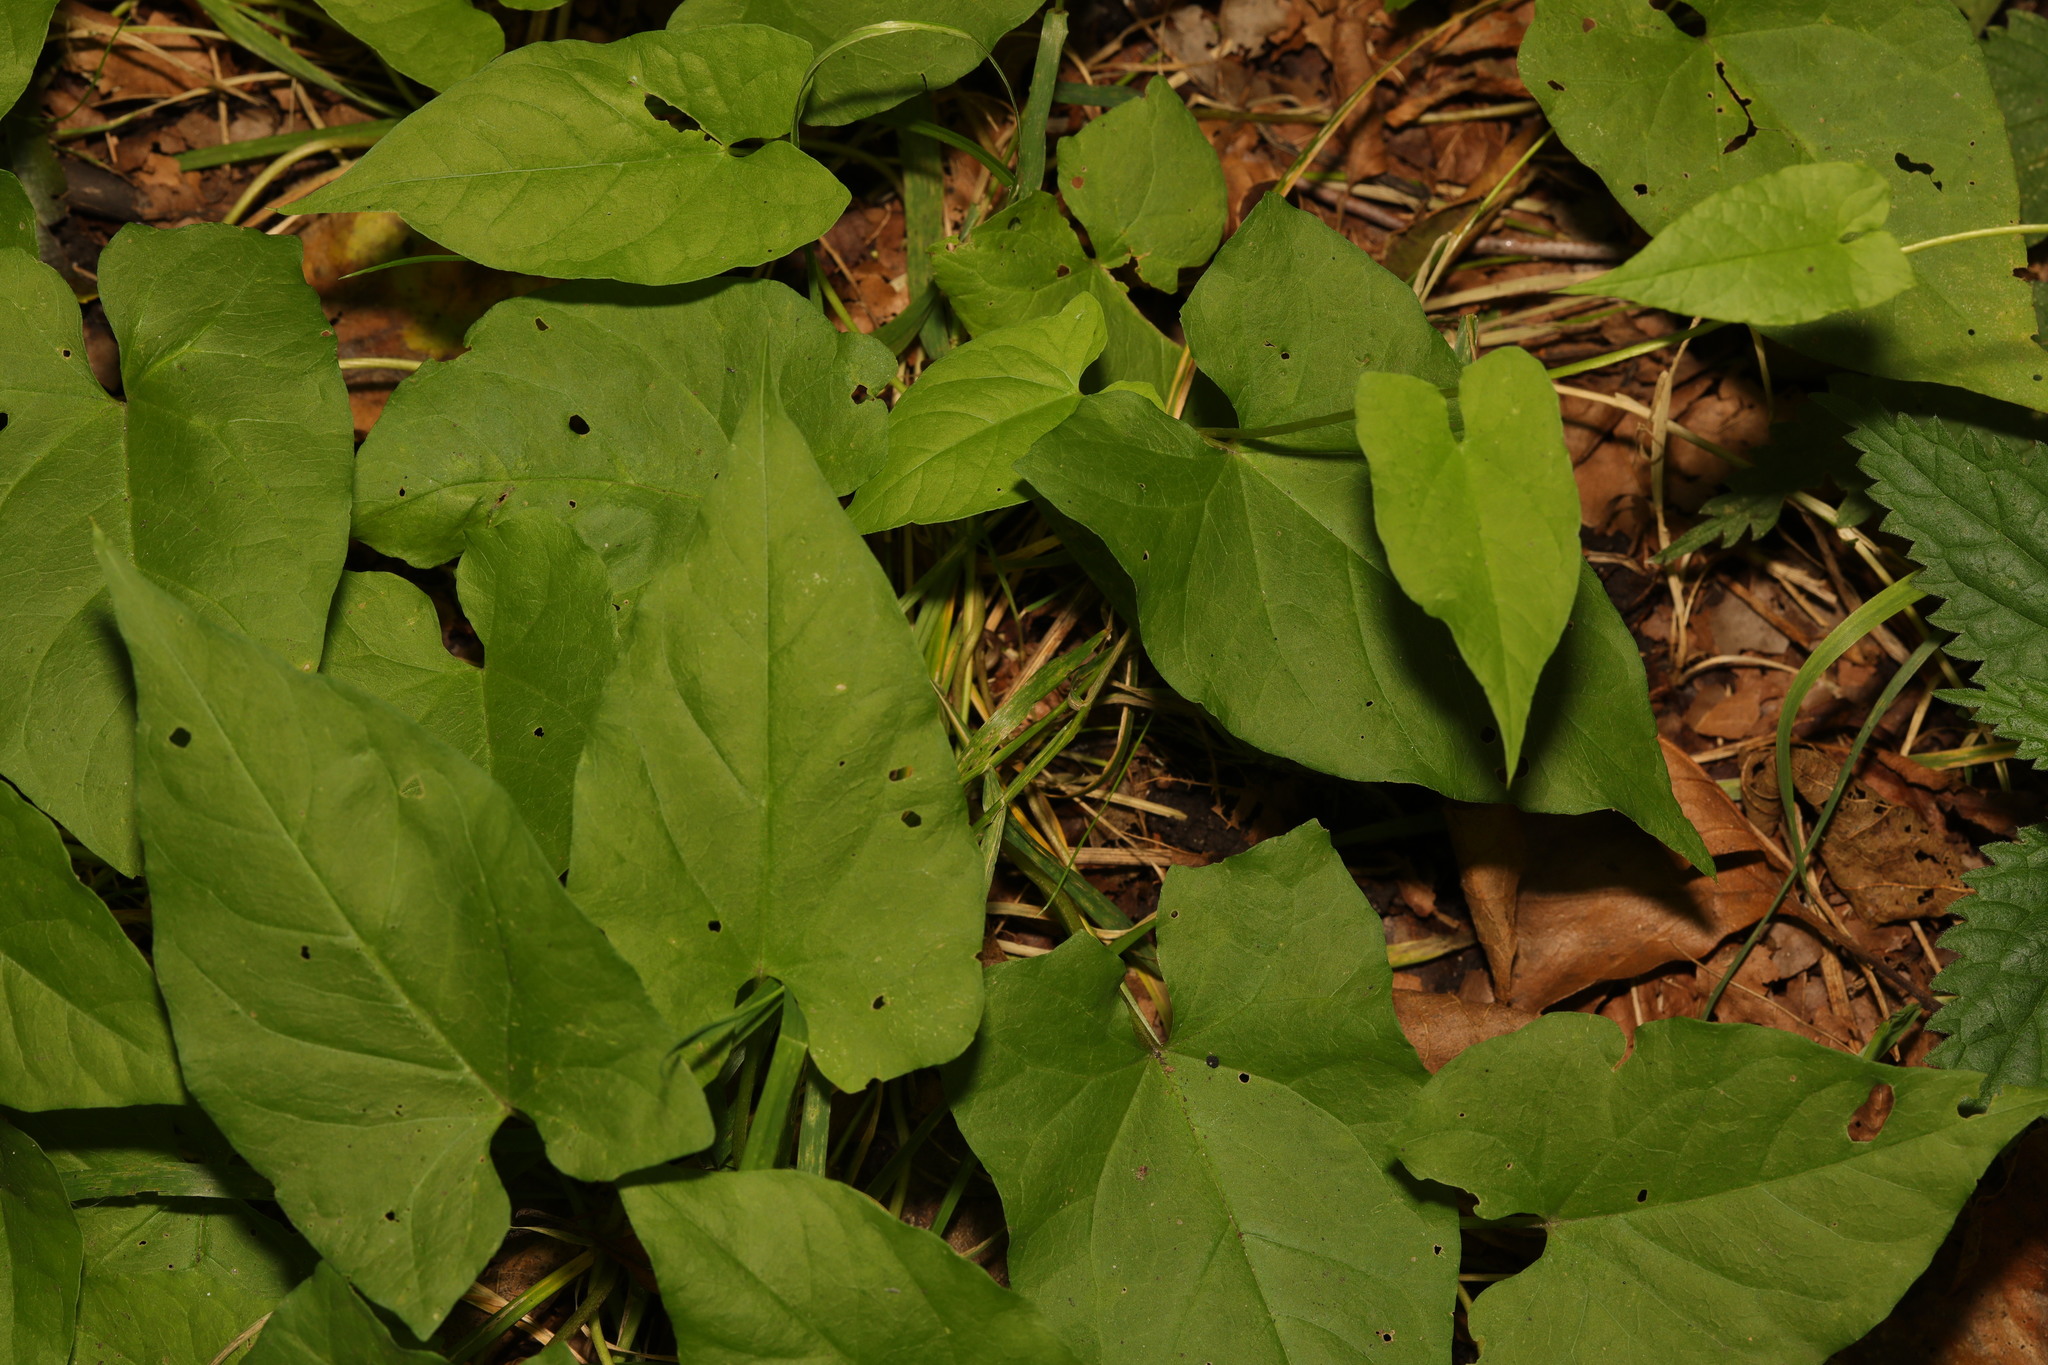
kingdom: Plantae
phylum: Tracheophyta
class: Magnoliopsida
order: Solanales
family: Convolvulaceae
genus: Calystegia
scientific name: Calystegia
